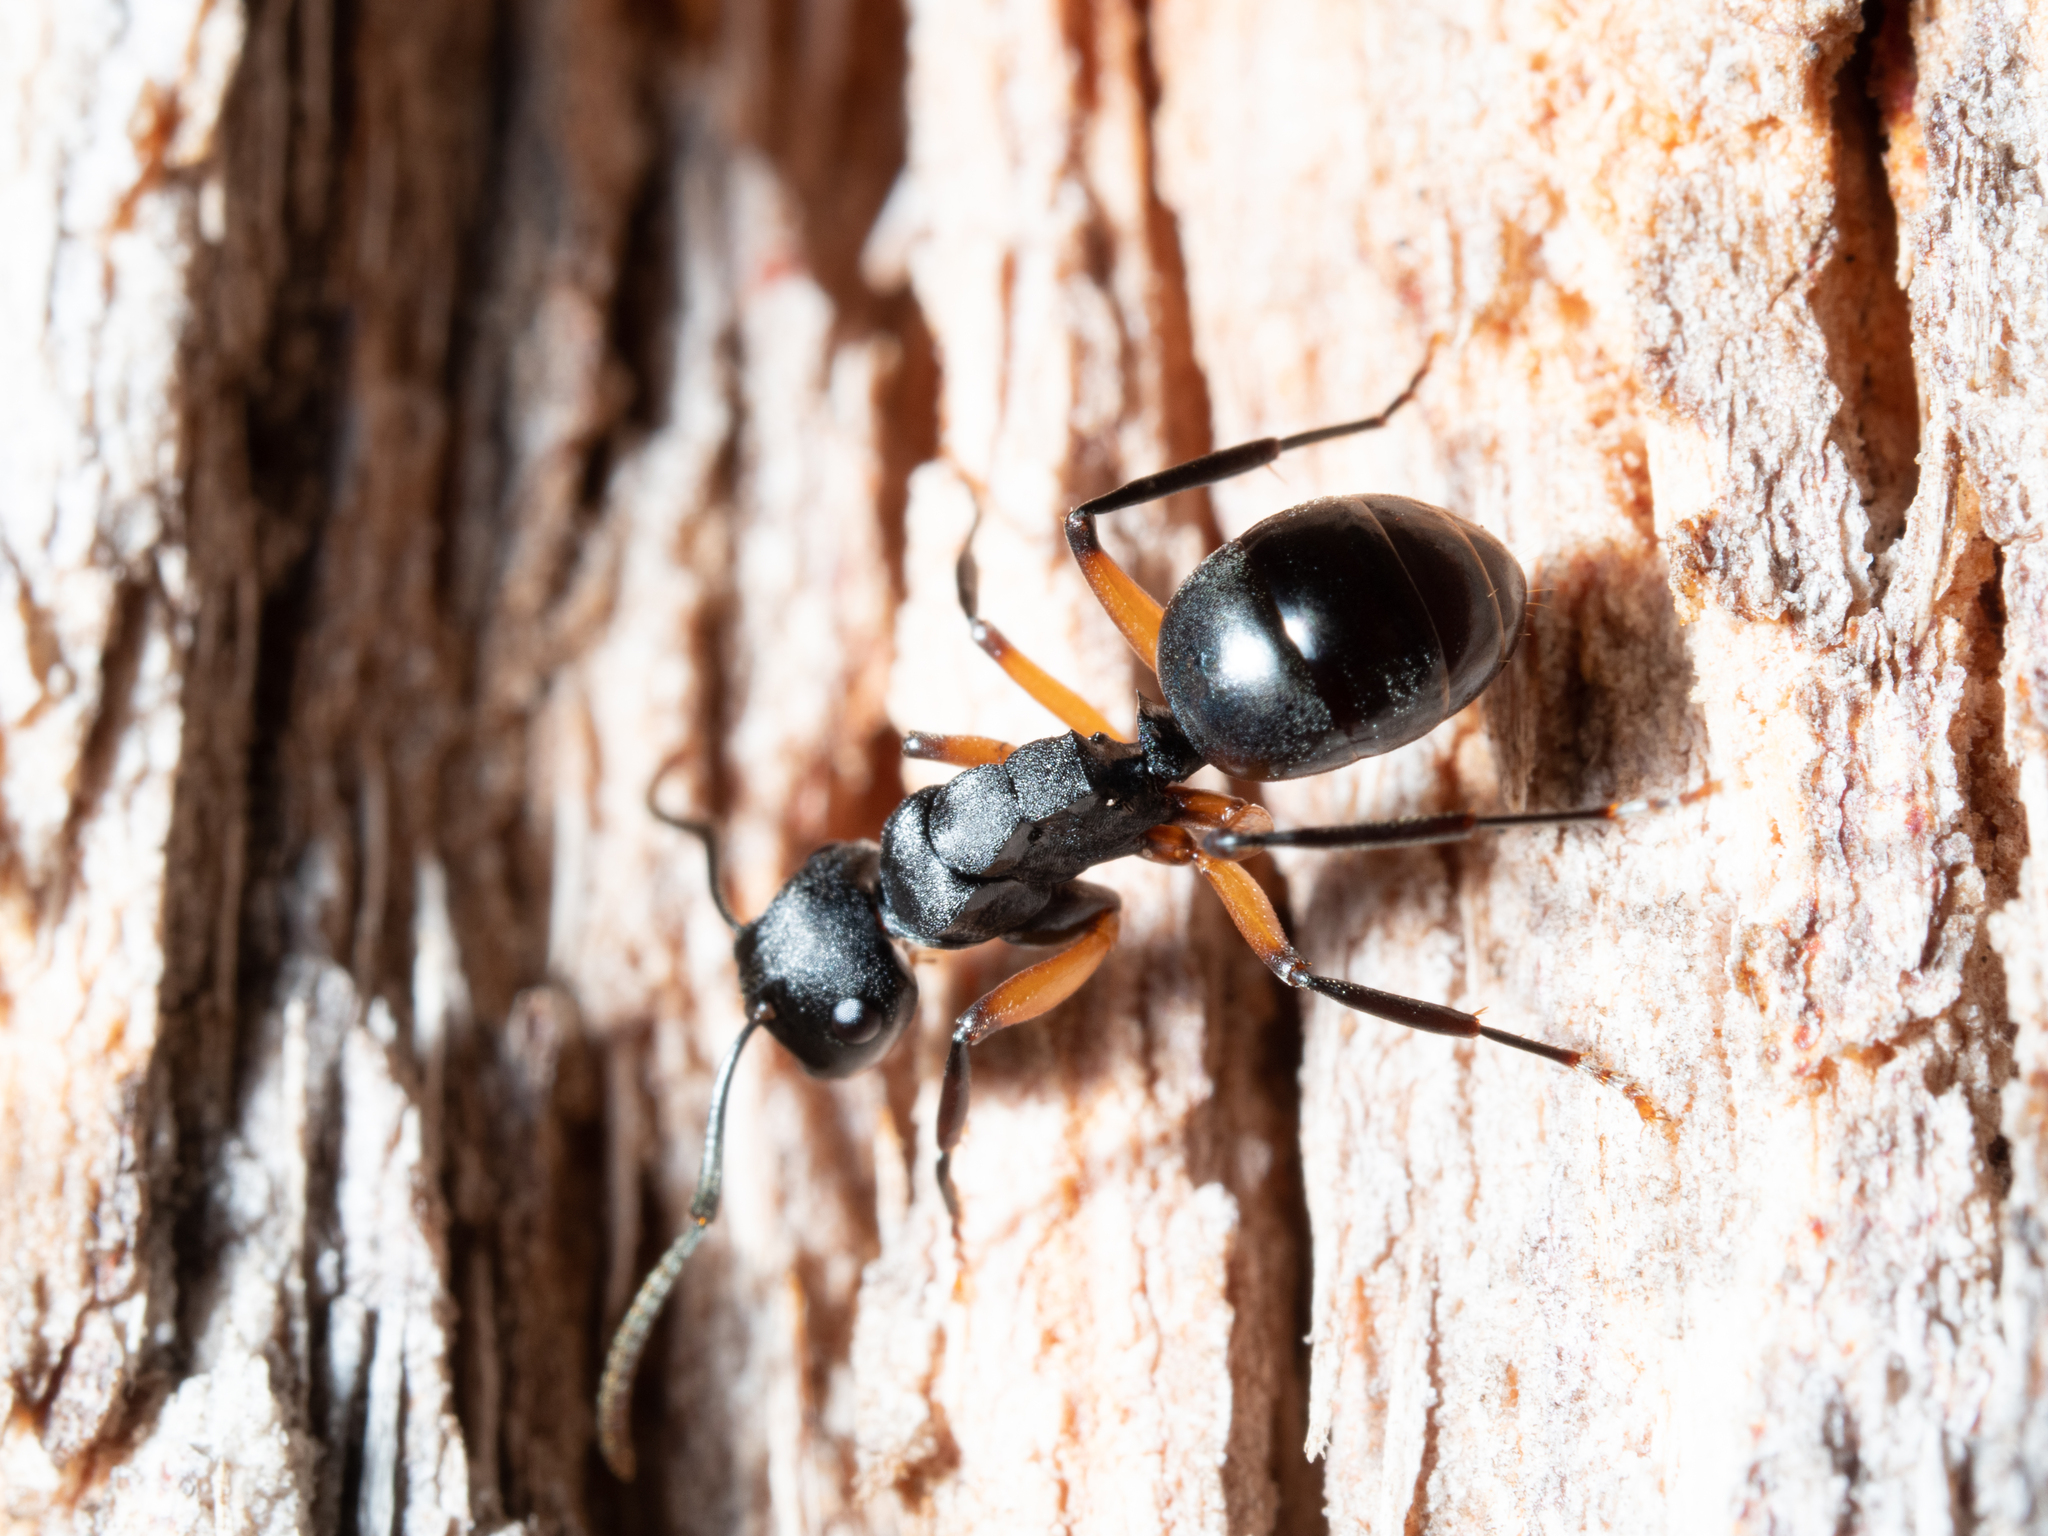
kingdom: Animalia
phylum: Arthropoda
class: Insecta
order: Hymenoptera
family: Formicidae
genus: Polyrhachis
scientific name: Polyrhachis femorata
